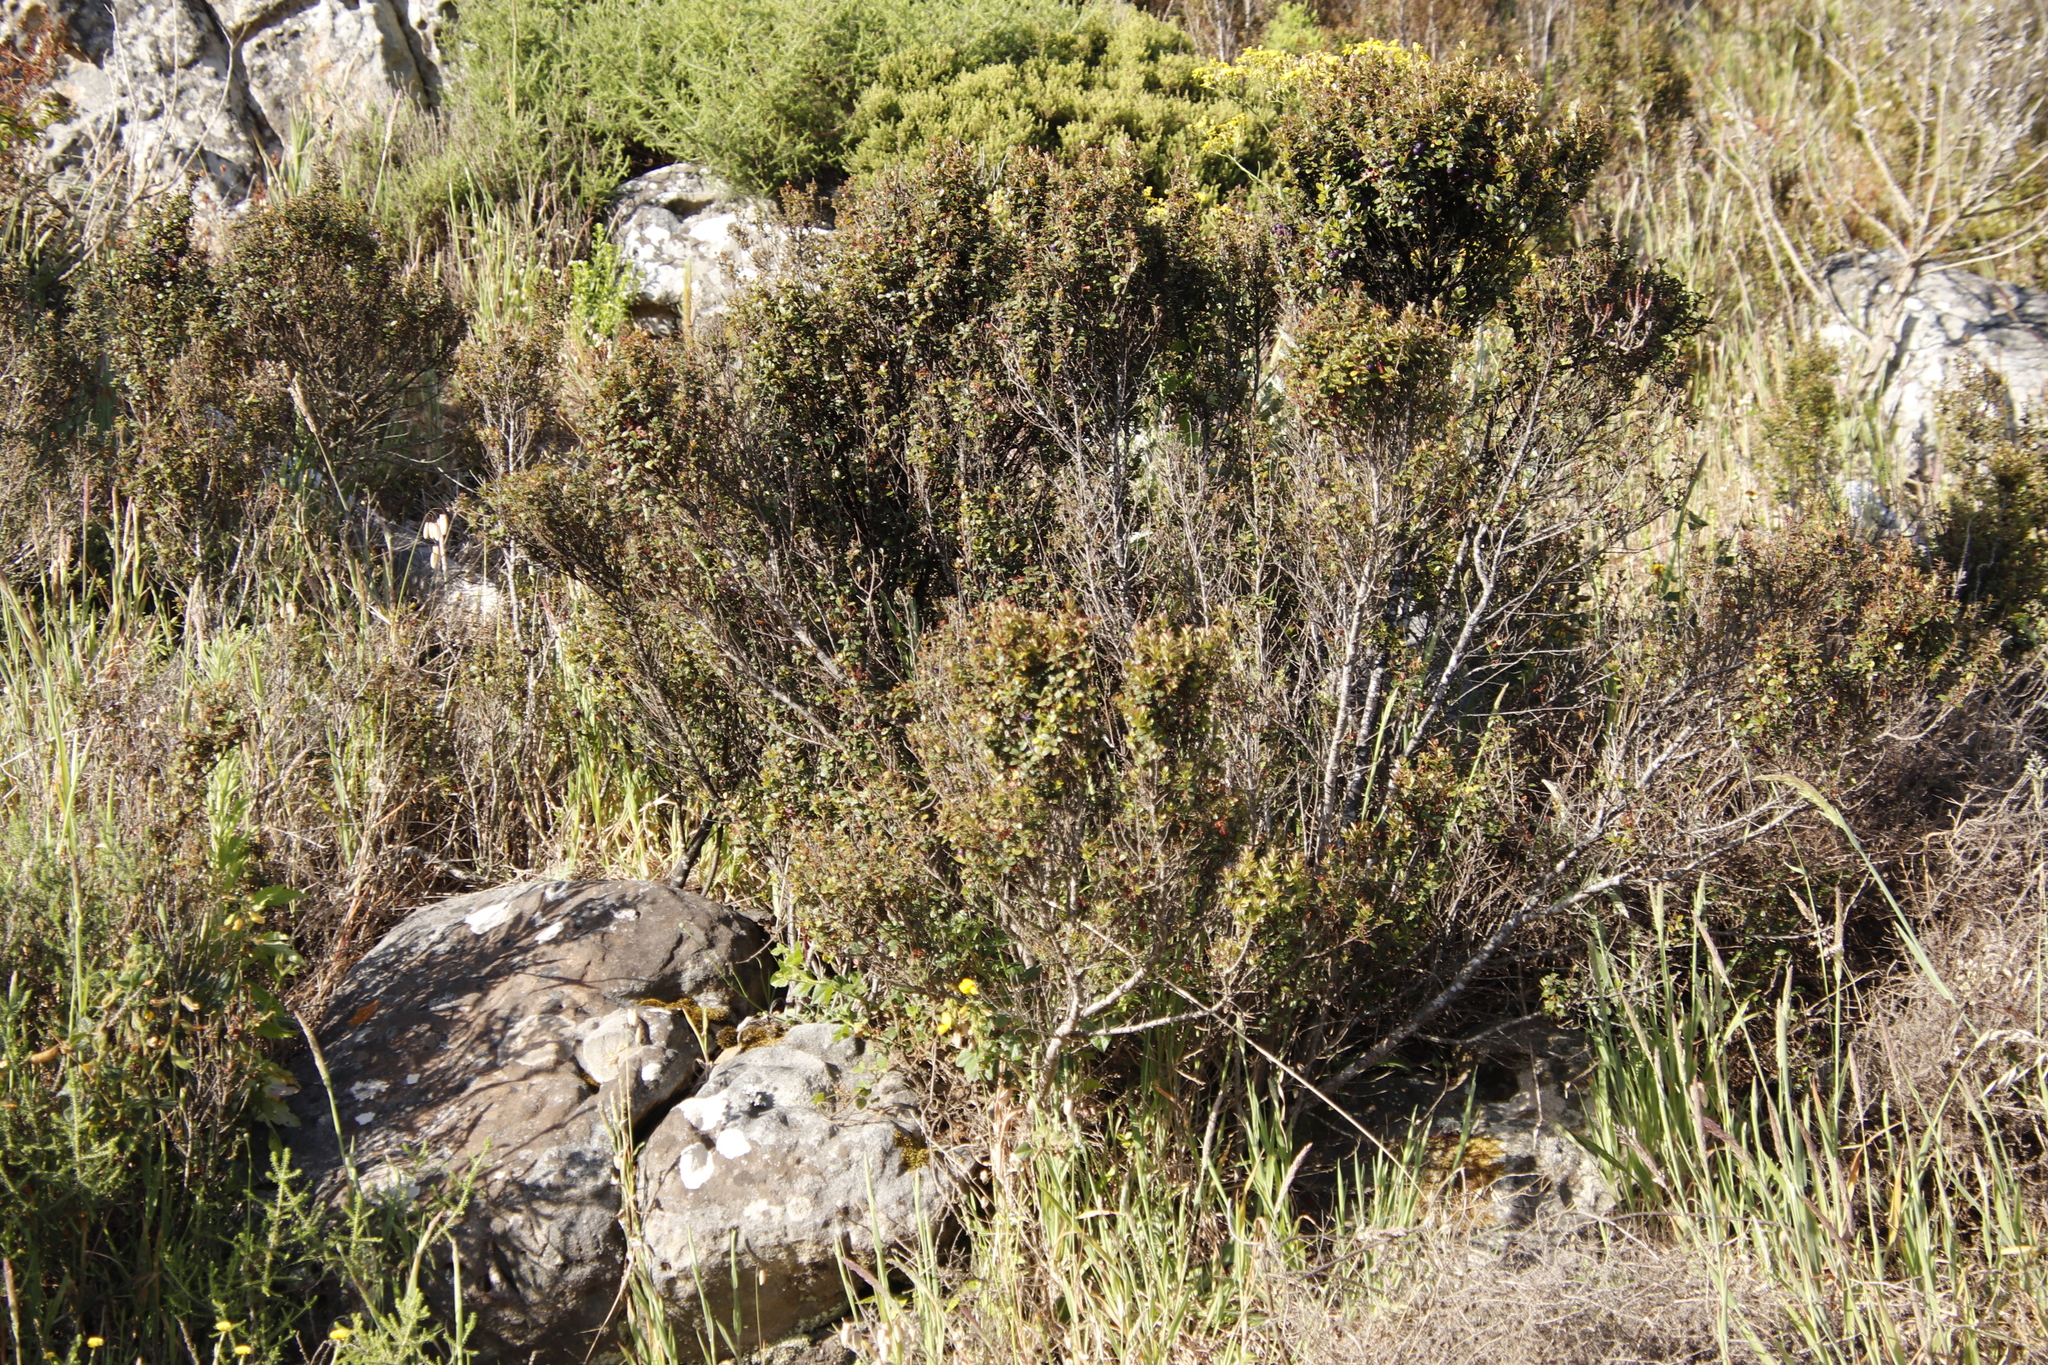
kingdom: Plantae
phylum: Tracheophyta
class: Magnoliopsida
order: Ericales
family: Primulaceae
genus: Myrsine
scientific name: Myrsine africana
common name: African-boxwood
